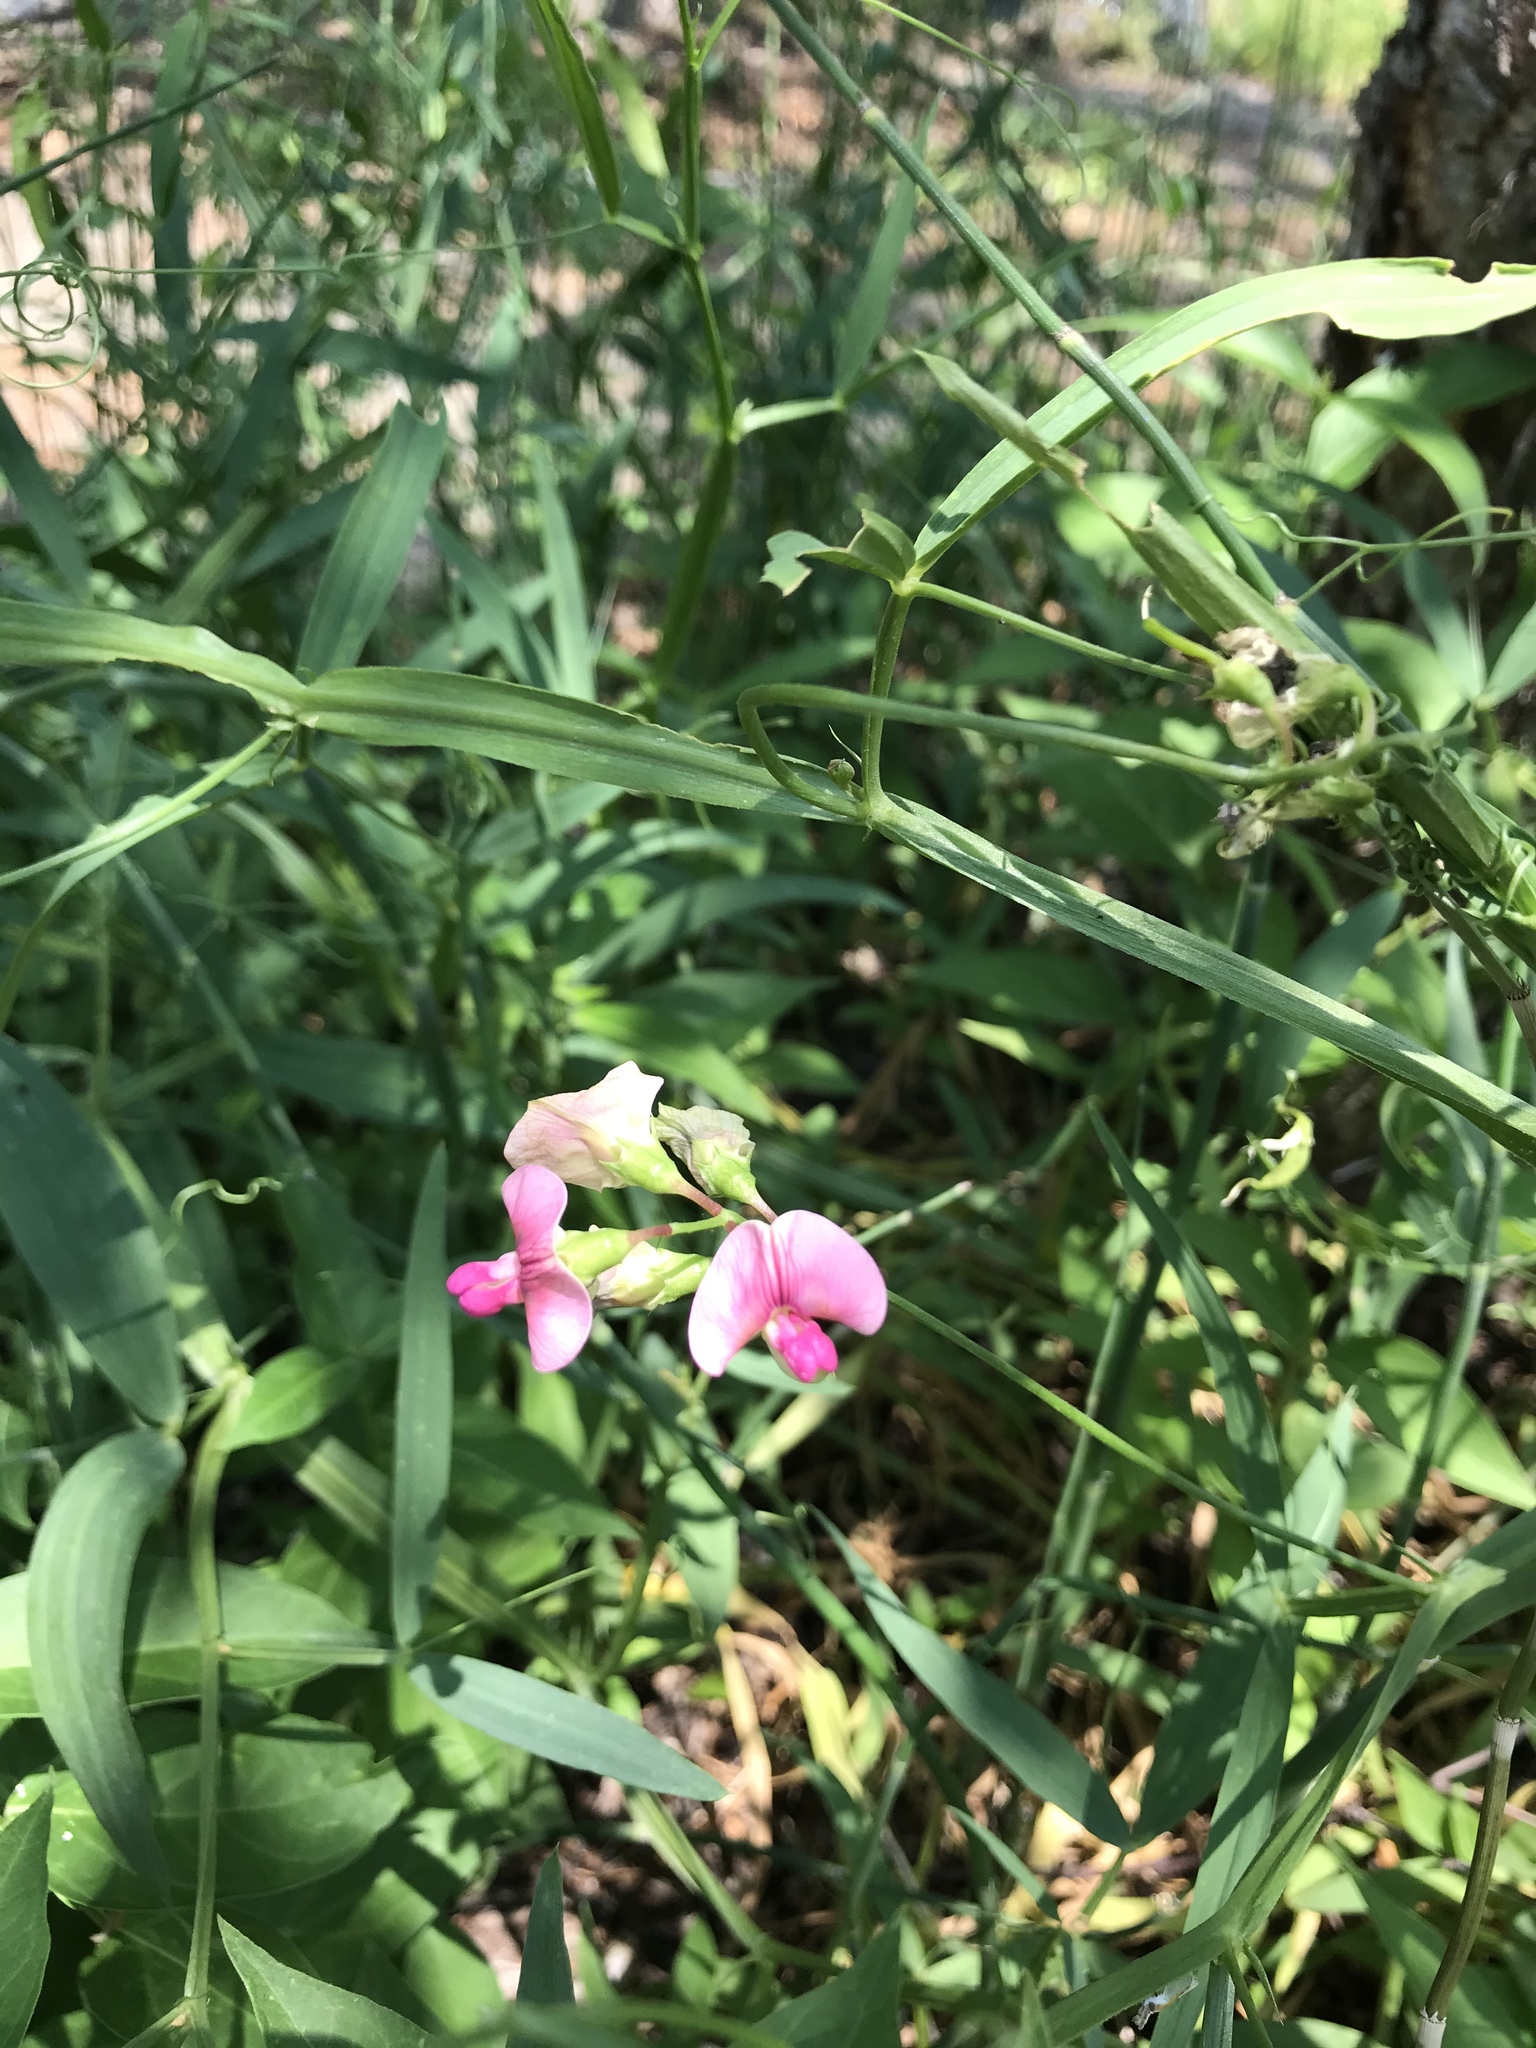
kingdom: Plantae
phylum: Tracheophyta
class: Magnoliopsida
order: Fabales
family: Fabaceae
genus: Lathyrus
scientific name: Lathyrus sylvestris
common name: Flat pea
